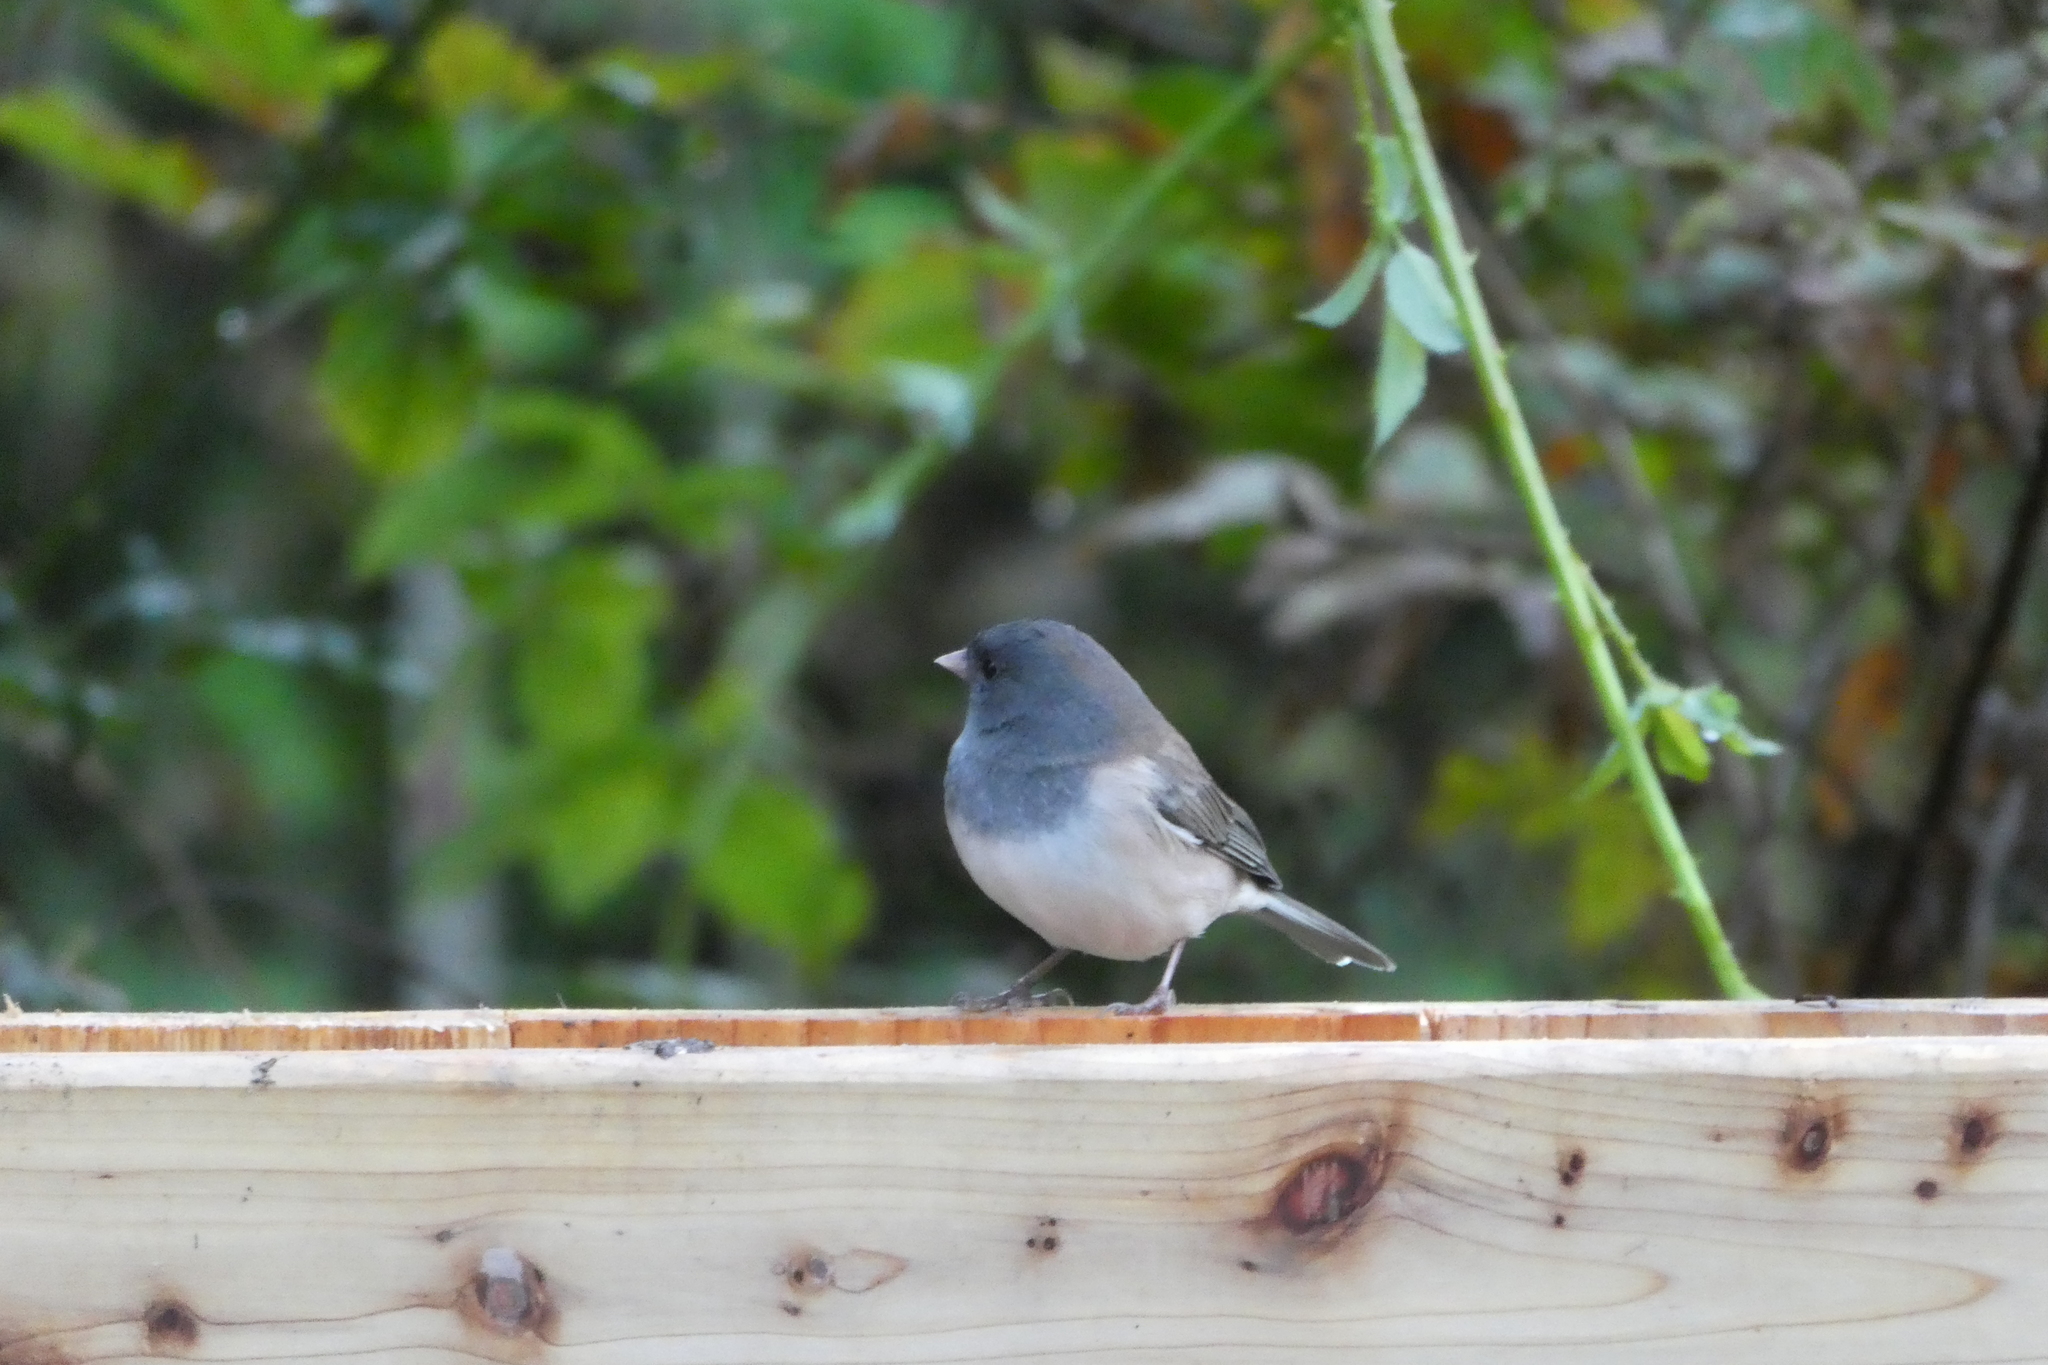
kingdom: Animalia
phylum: Chordata
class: Aves
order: Passeriformes
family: Passerellidae
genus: Junco
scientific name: Junco hyemalis
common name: Dark-eyed junco
